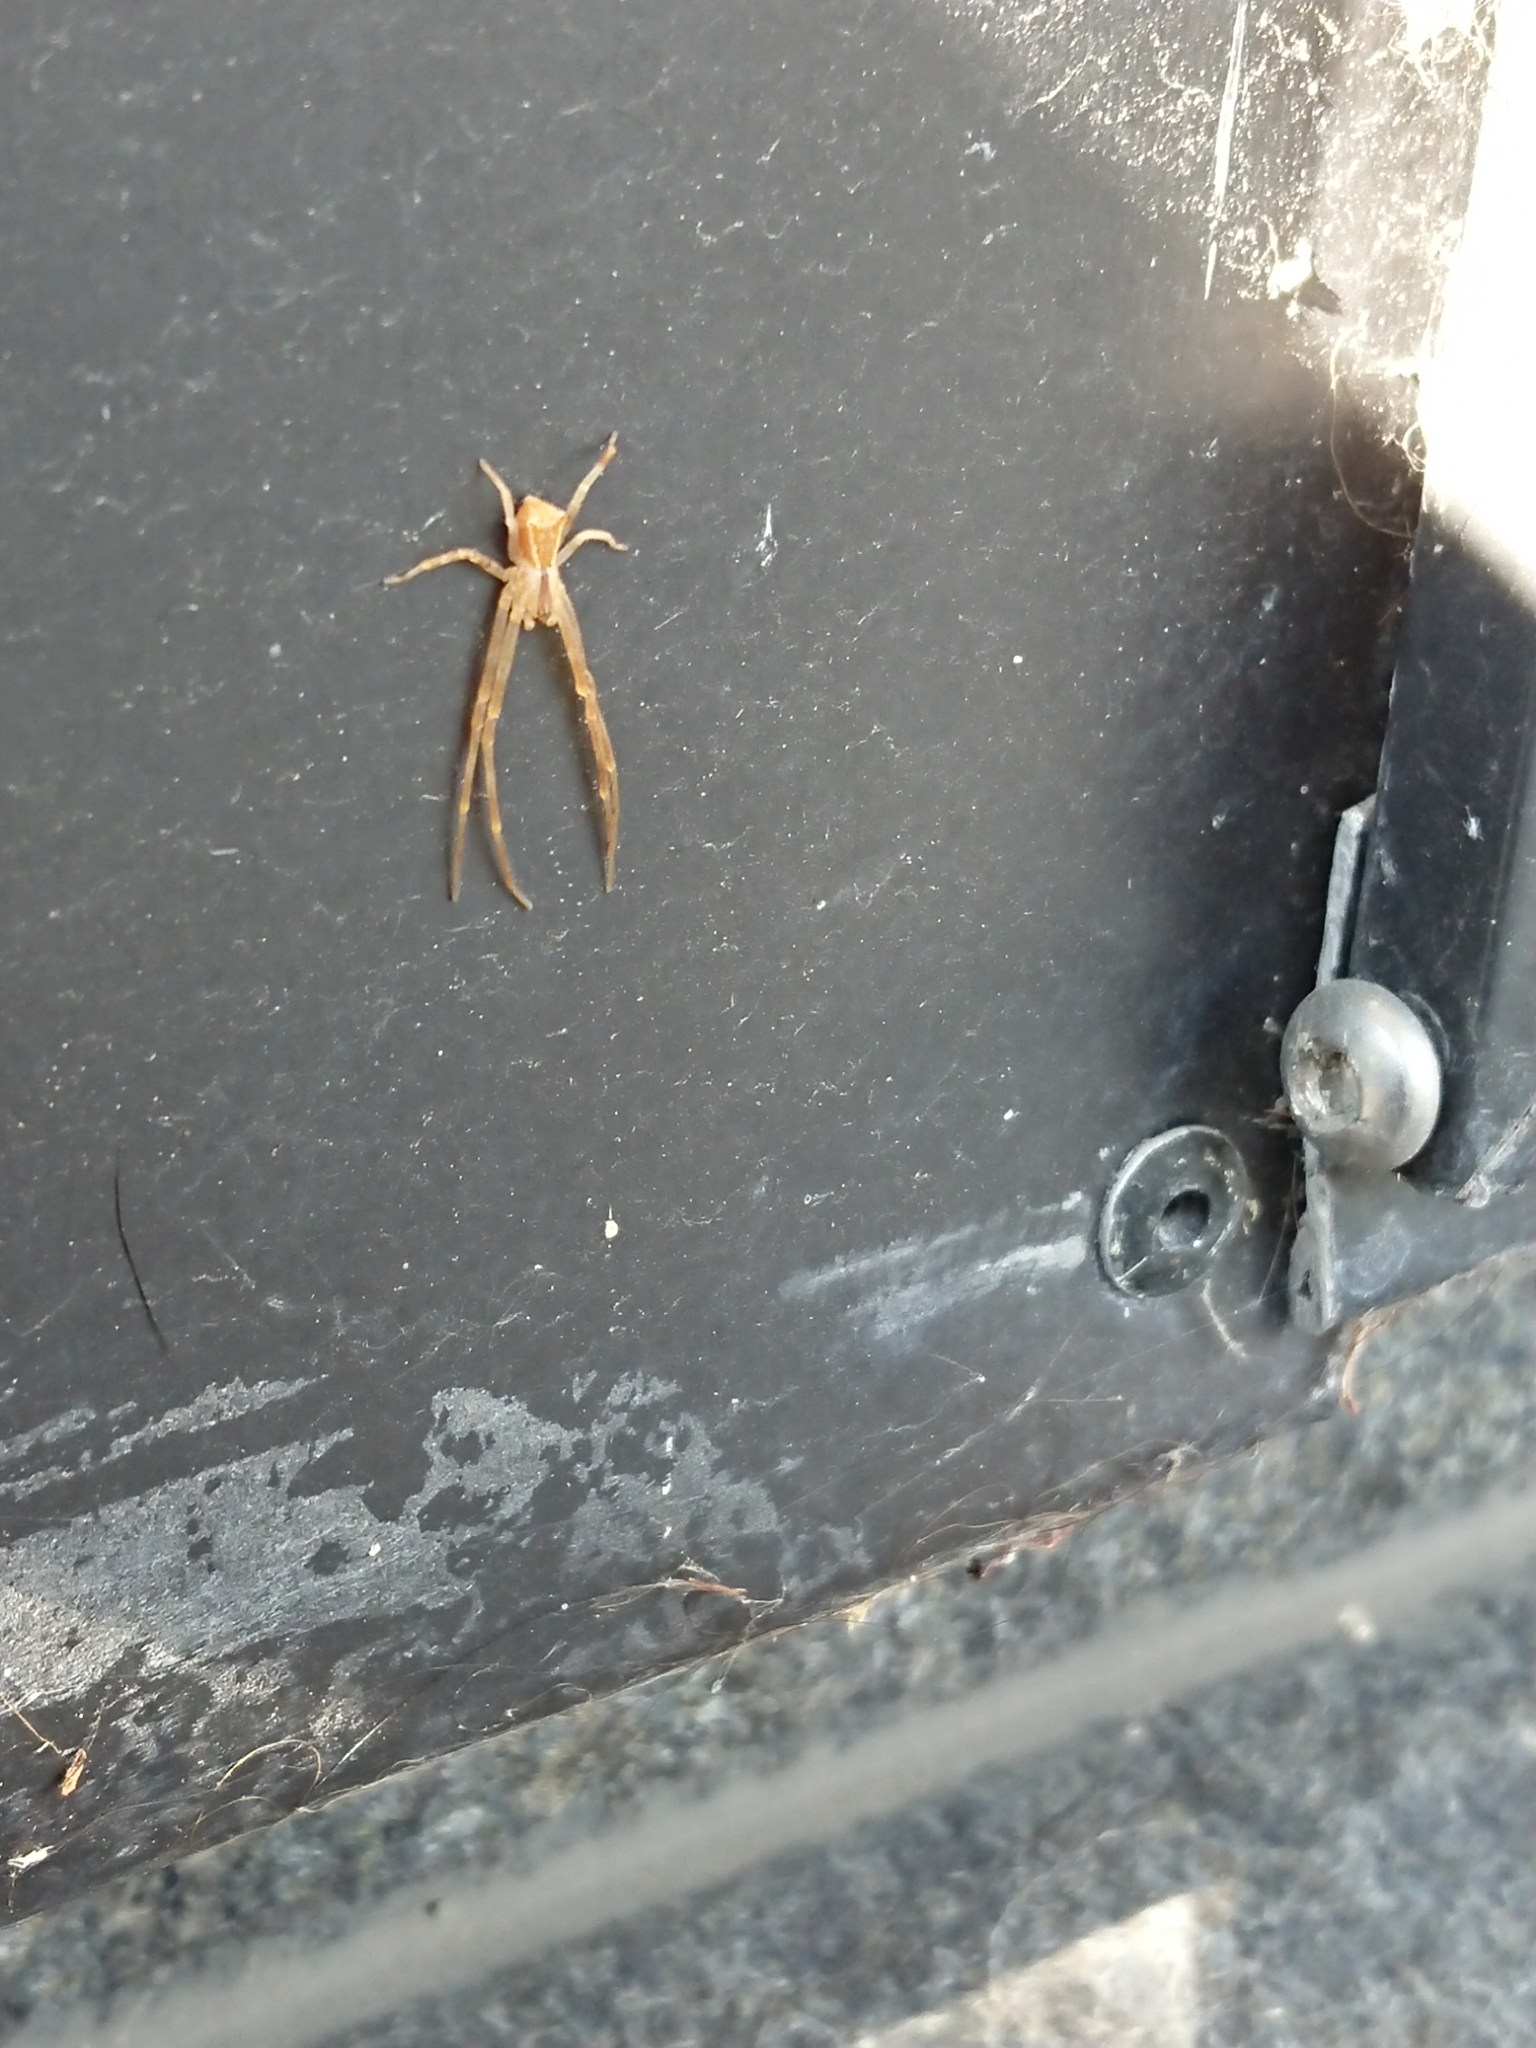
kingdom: Animalia
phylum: Arthropoda
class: Arachnida
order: Araneae
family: Thomisidae
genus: Sidymella
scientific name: Sidymella longipes
